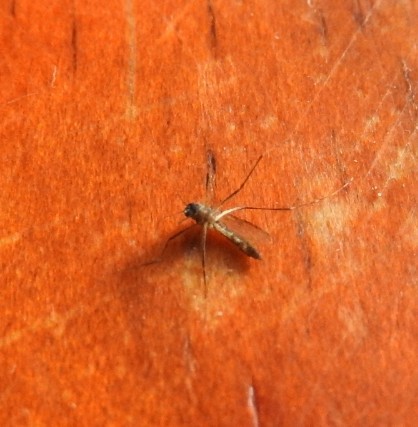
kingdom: Animalia
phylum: Arthropoda
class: Insecta
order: Diptera
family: Culicidae
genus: Aedes
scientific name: Aedes aegypti
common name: Yellow fever mosquito
